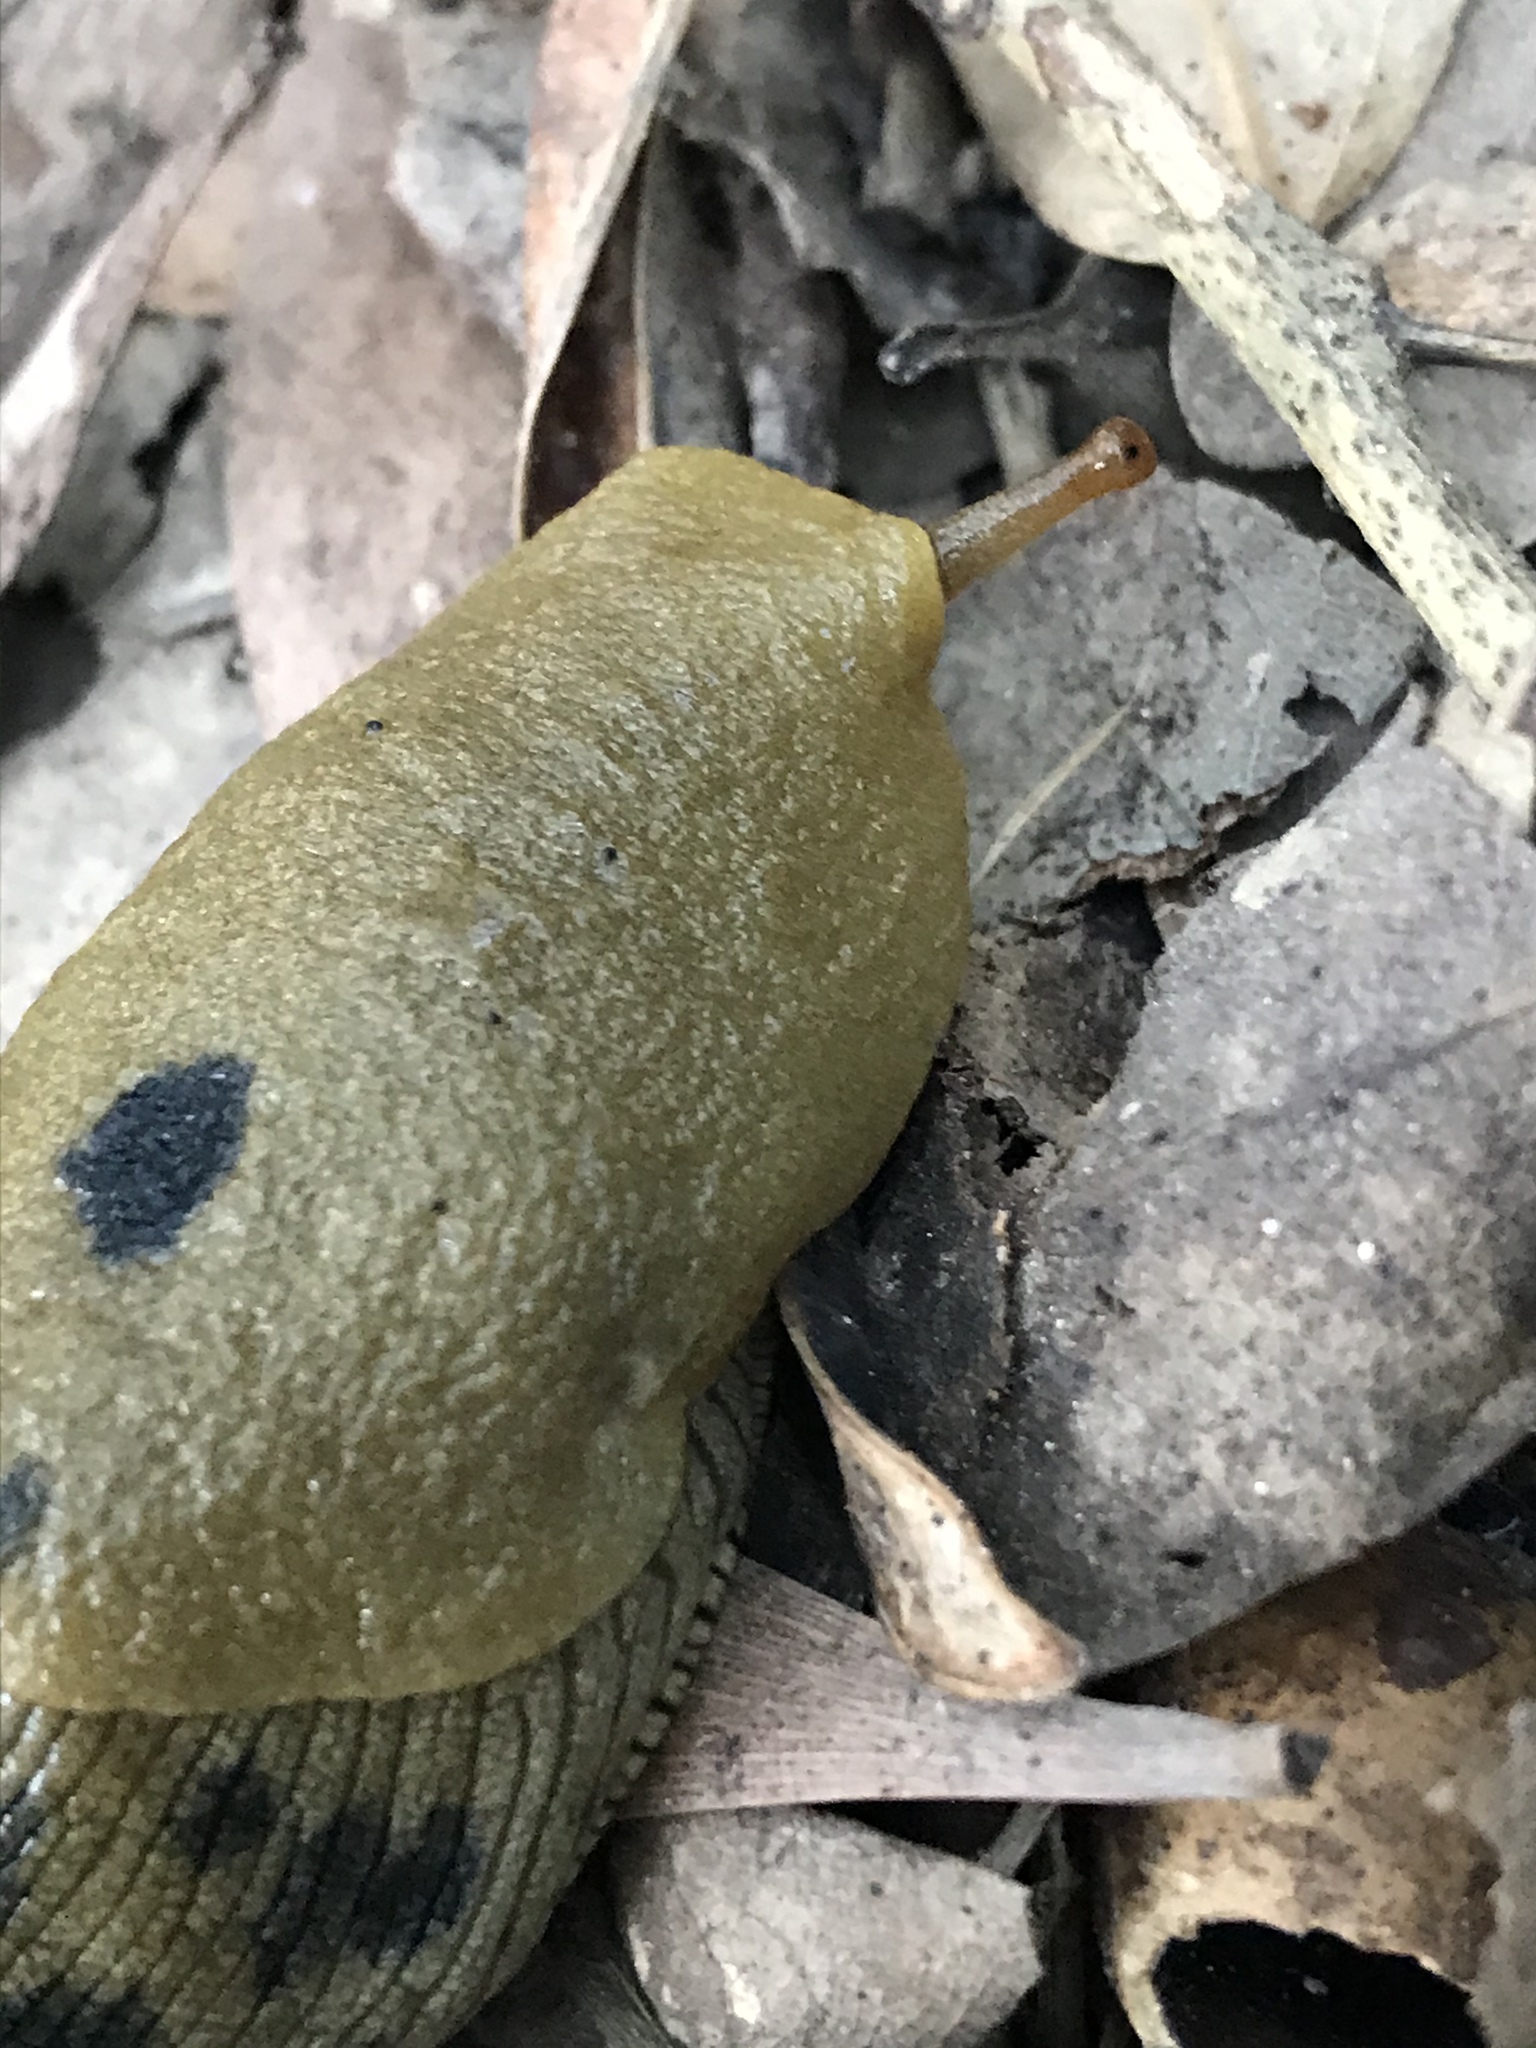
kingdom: Animalia
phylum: Mollusca
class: Gastropoda
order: Stylommatophora
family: Ariolimacidae
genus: Ariolimax
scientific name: Ariolimax buttoni
